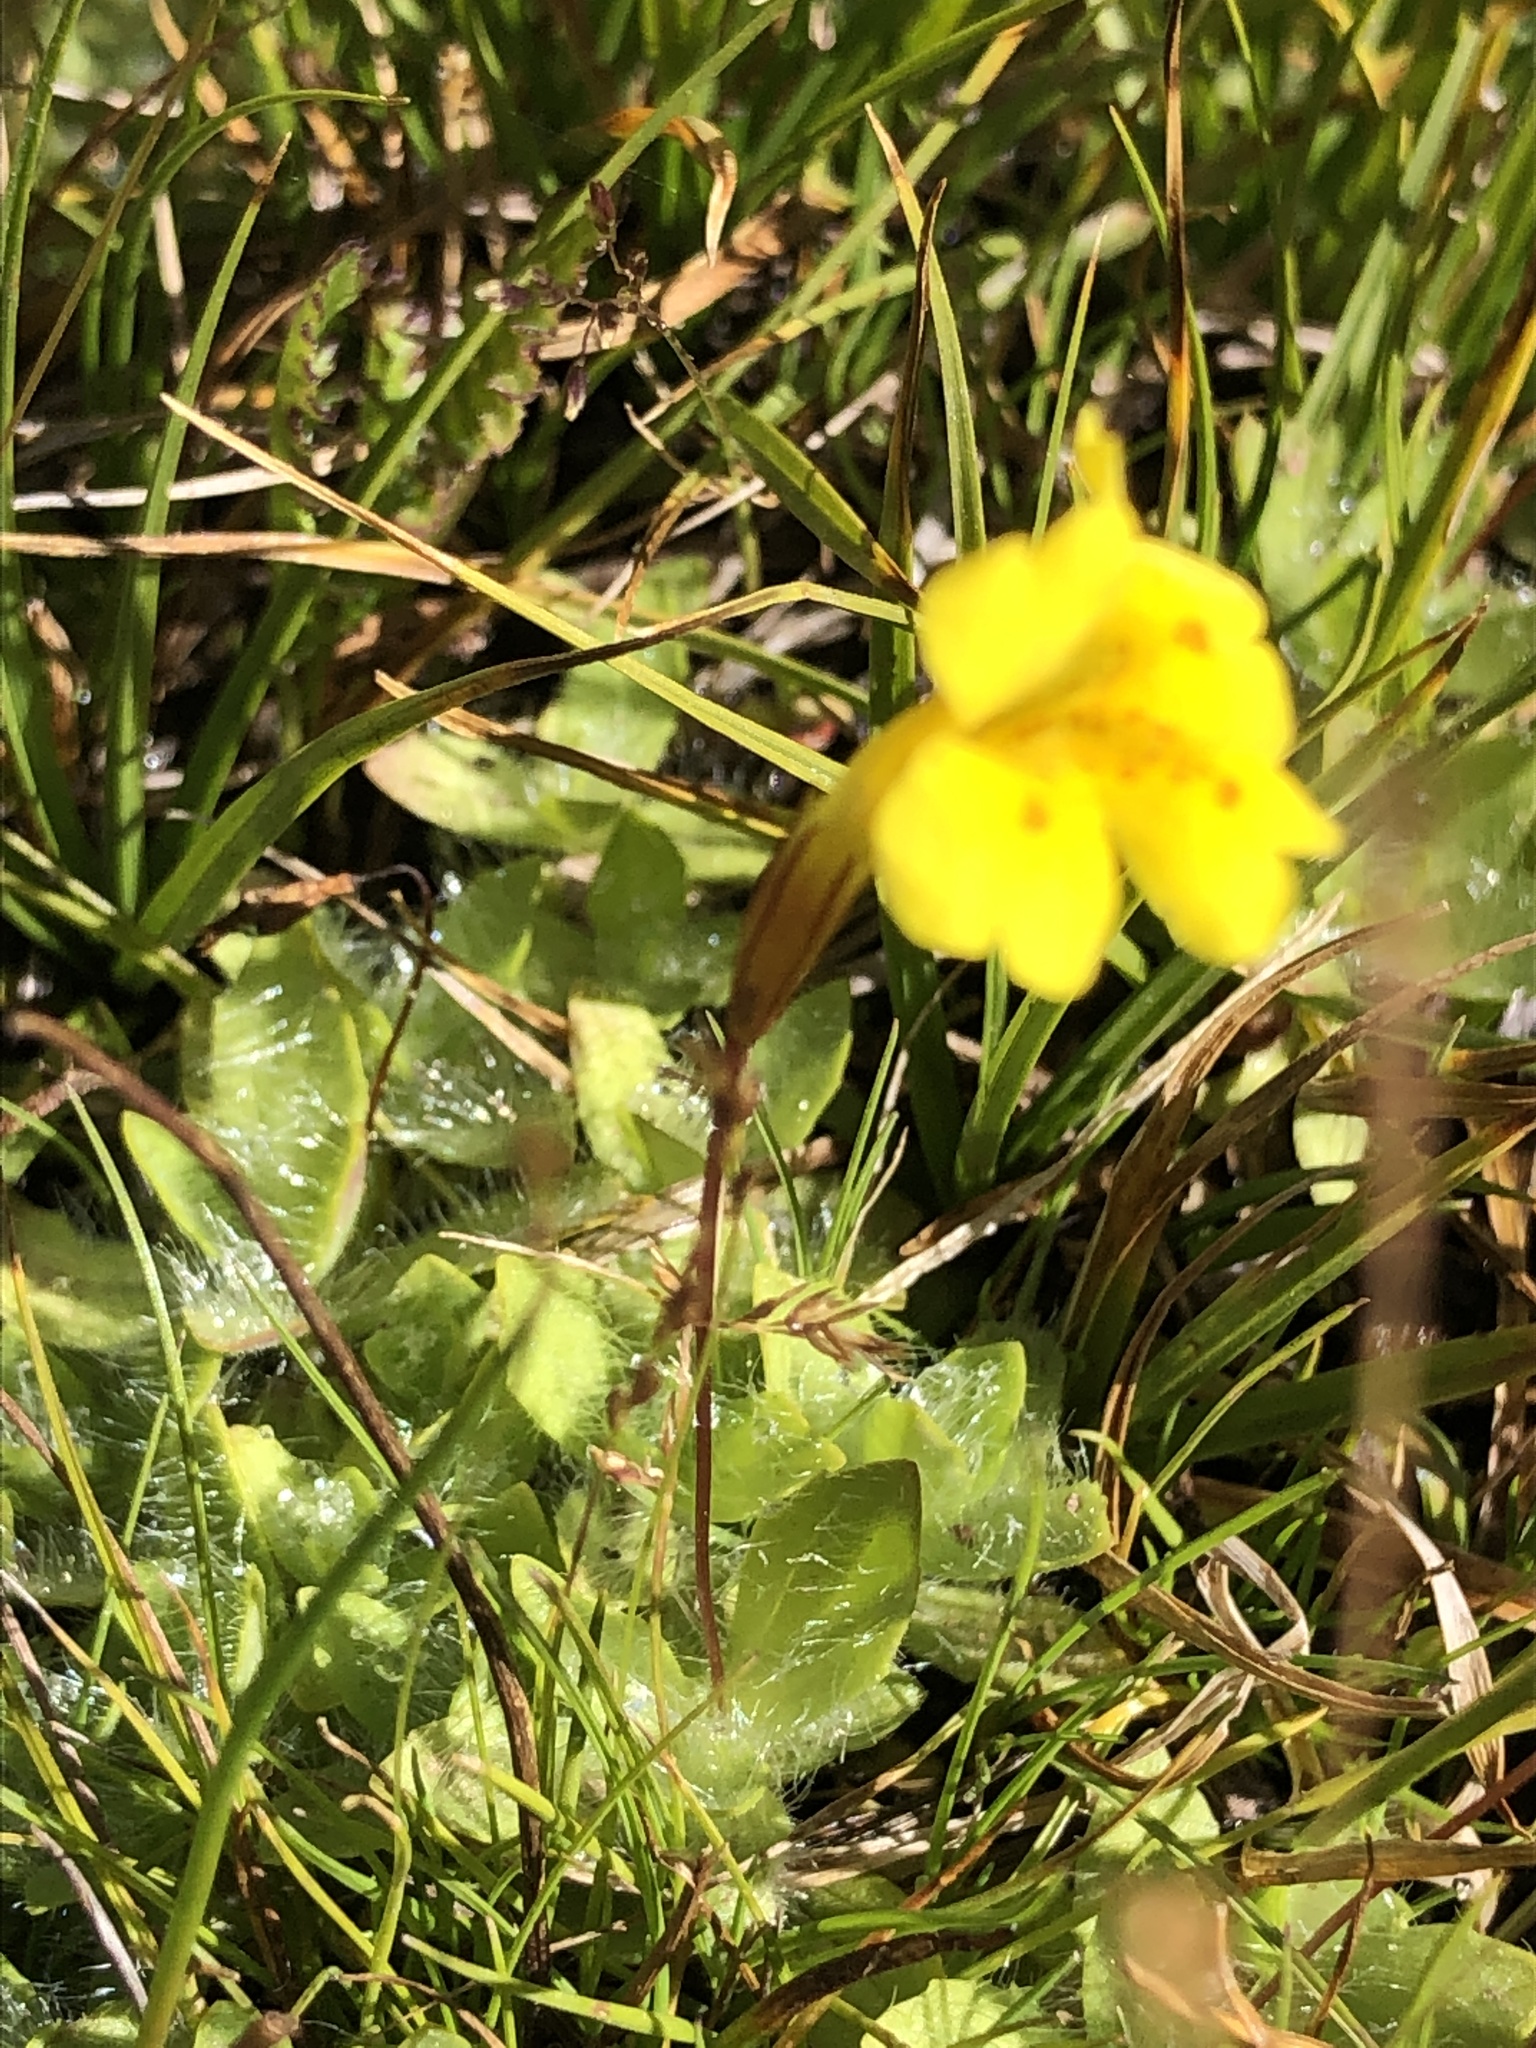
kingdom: Plantae
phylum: Tracheophyta
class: Magnoliopsida
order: Lamiales
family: Phrymaceae
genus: Erythranthe
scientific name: Erythranthe primuloides
